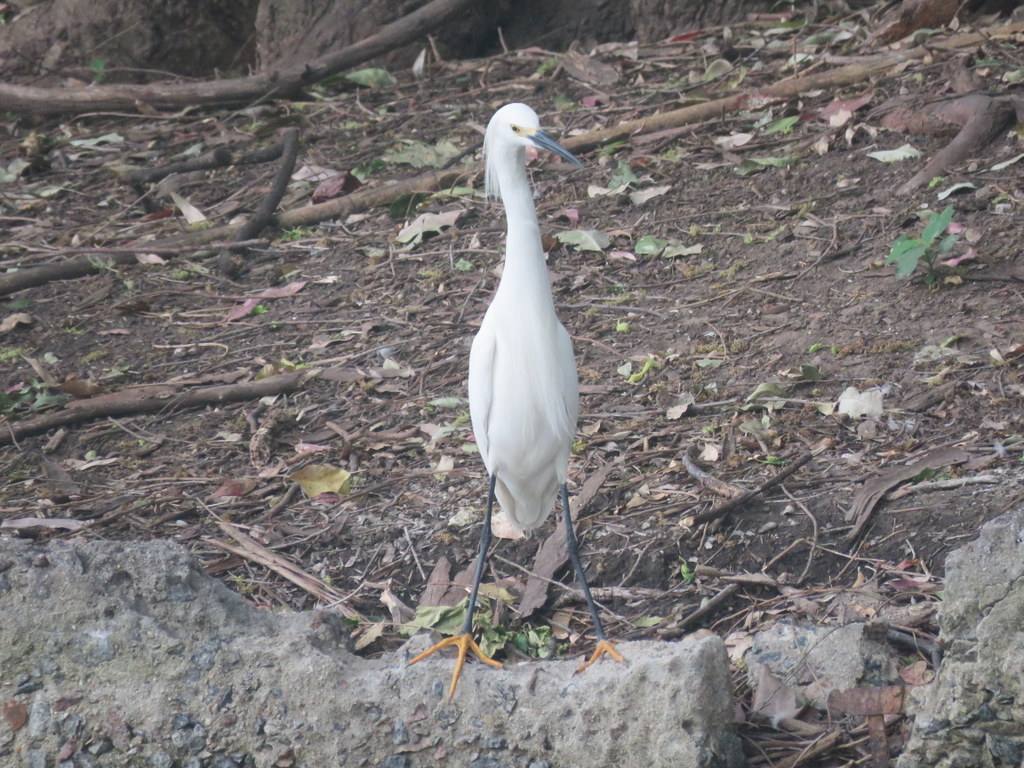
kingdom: Animalia
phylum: Chordata
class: Aves
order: Pelecaniformes
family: Ardeidae
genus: Egretta
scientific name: Egretta thula
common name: Snowy egret
